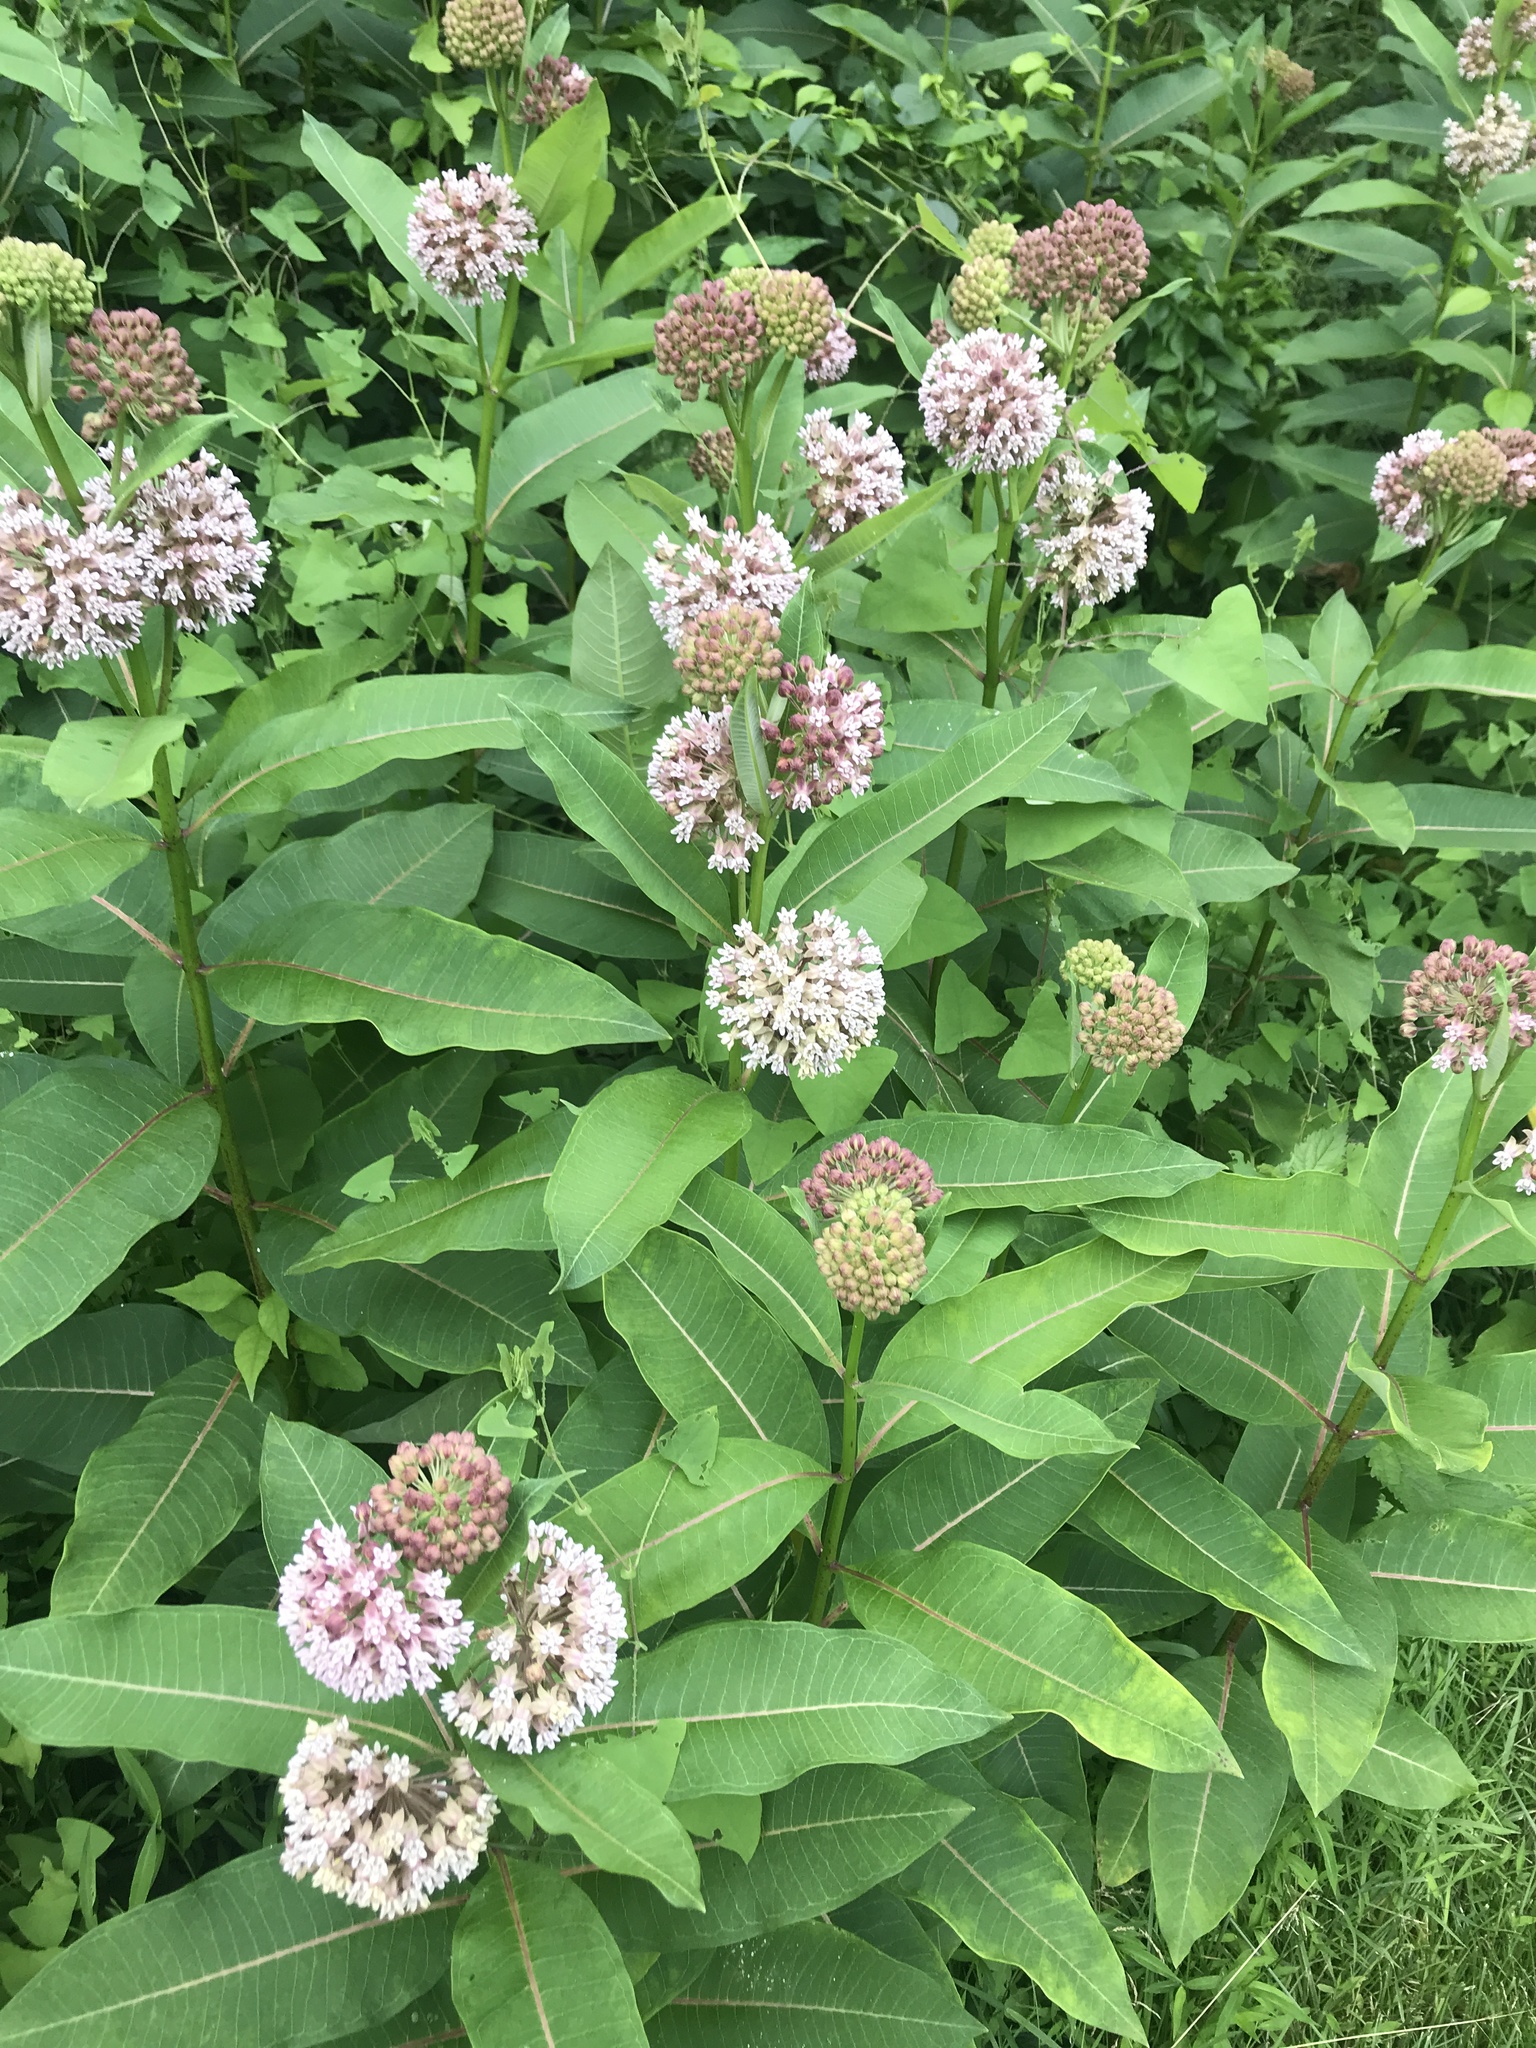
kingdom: Plantae
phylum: Tracheophyta
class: Magnoliopsida
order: Gentianales
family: Apocynaceae
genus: Asclepias
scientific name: Asclepias syriaca
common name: Common milkweed
